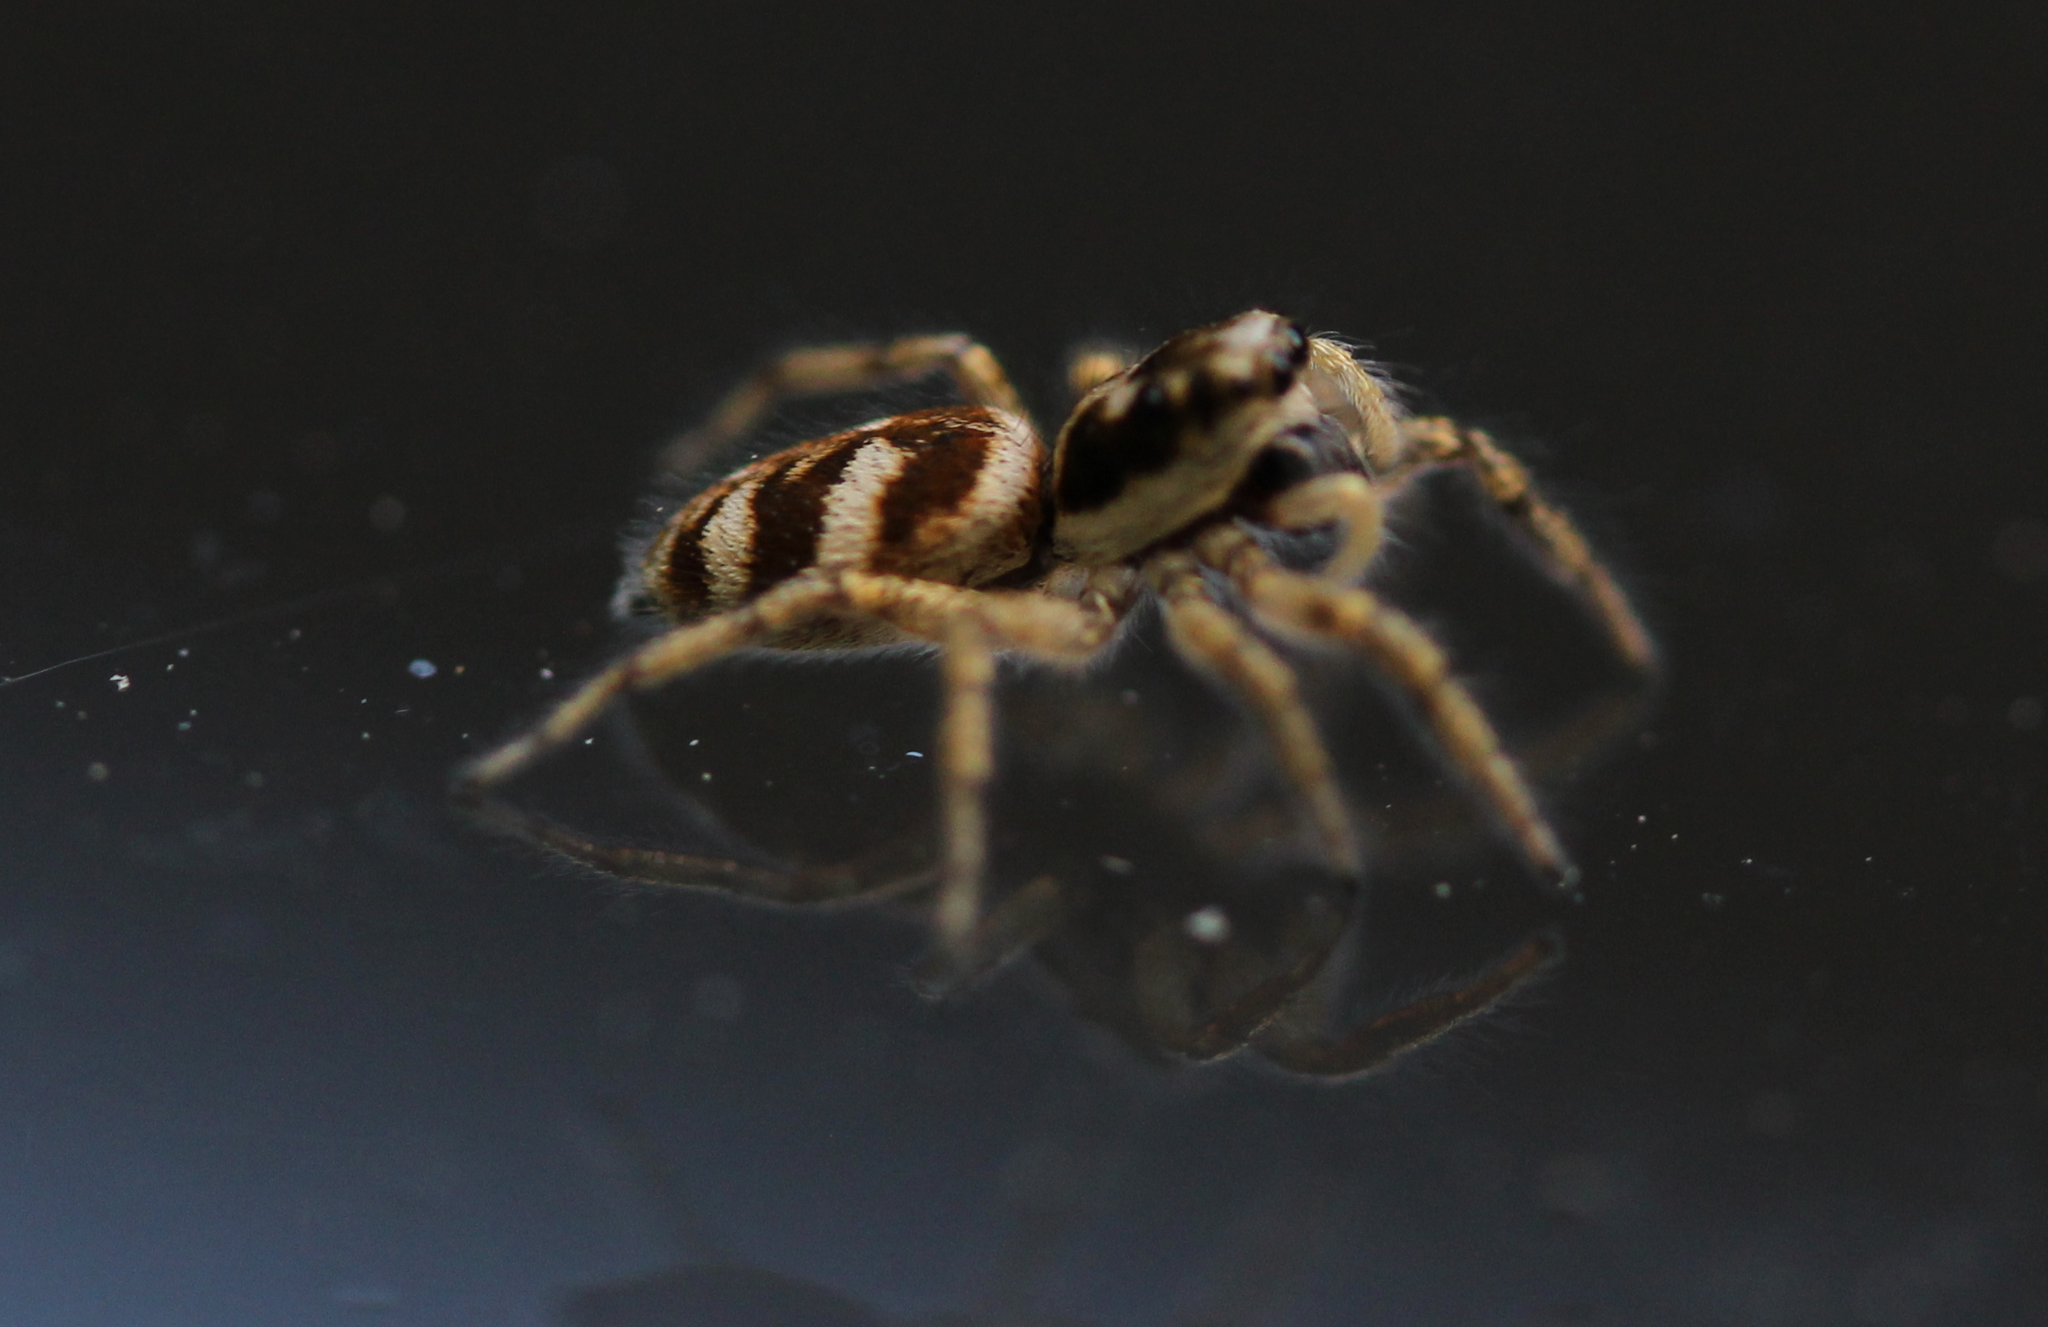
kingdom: Animalia
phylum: Arthropoda
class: Arachnida
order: Araneae
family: Salticidae
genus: Salticus
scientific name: Salticus scenicus
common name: Zebra jumper
